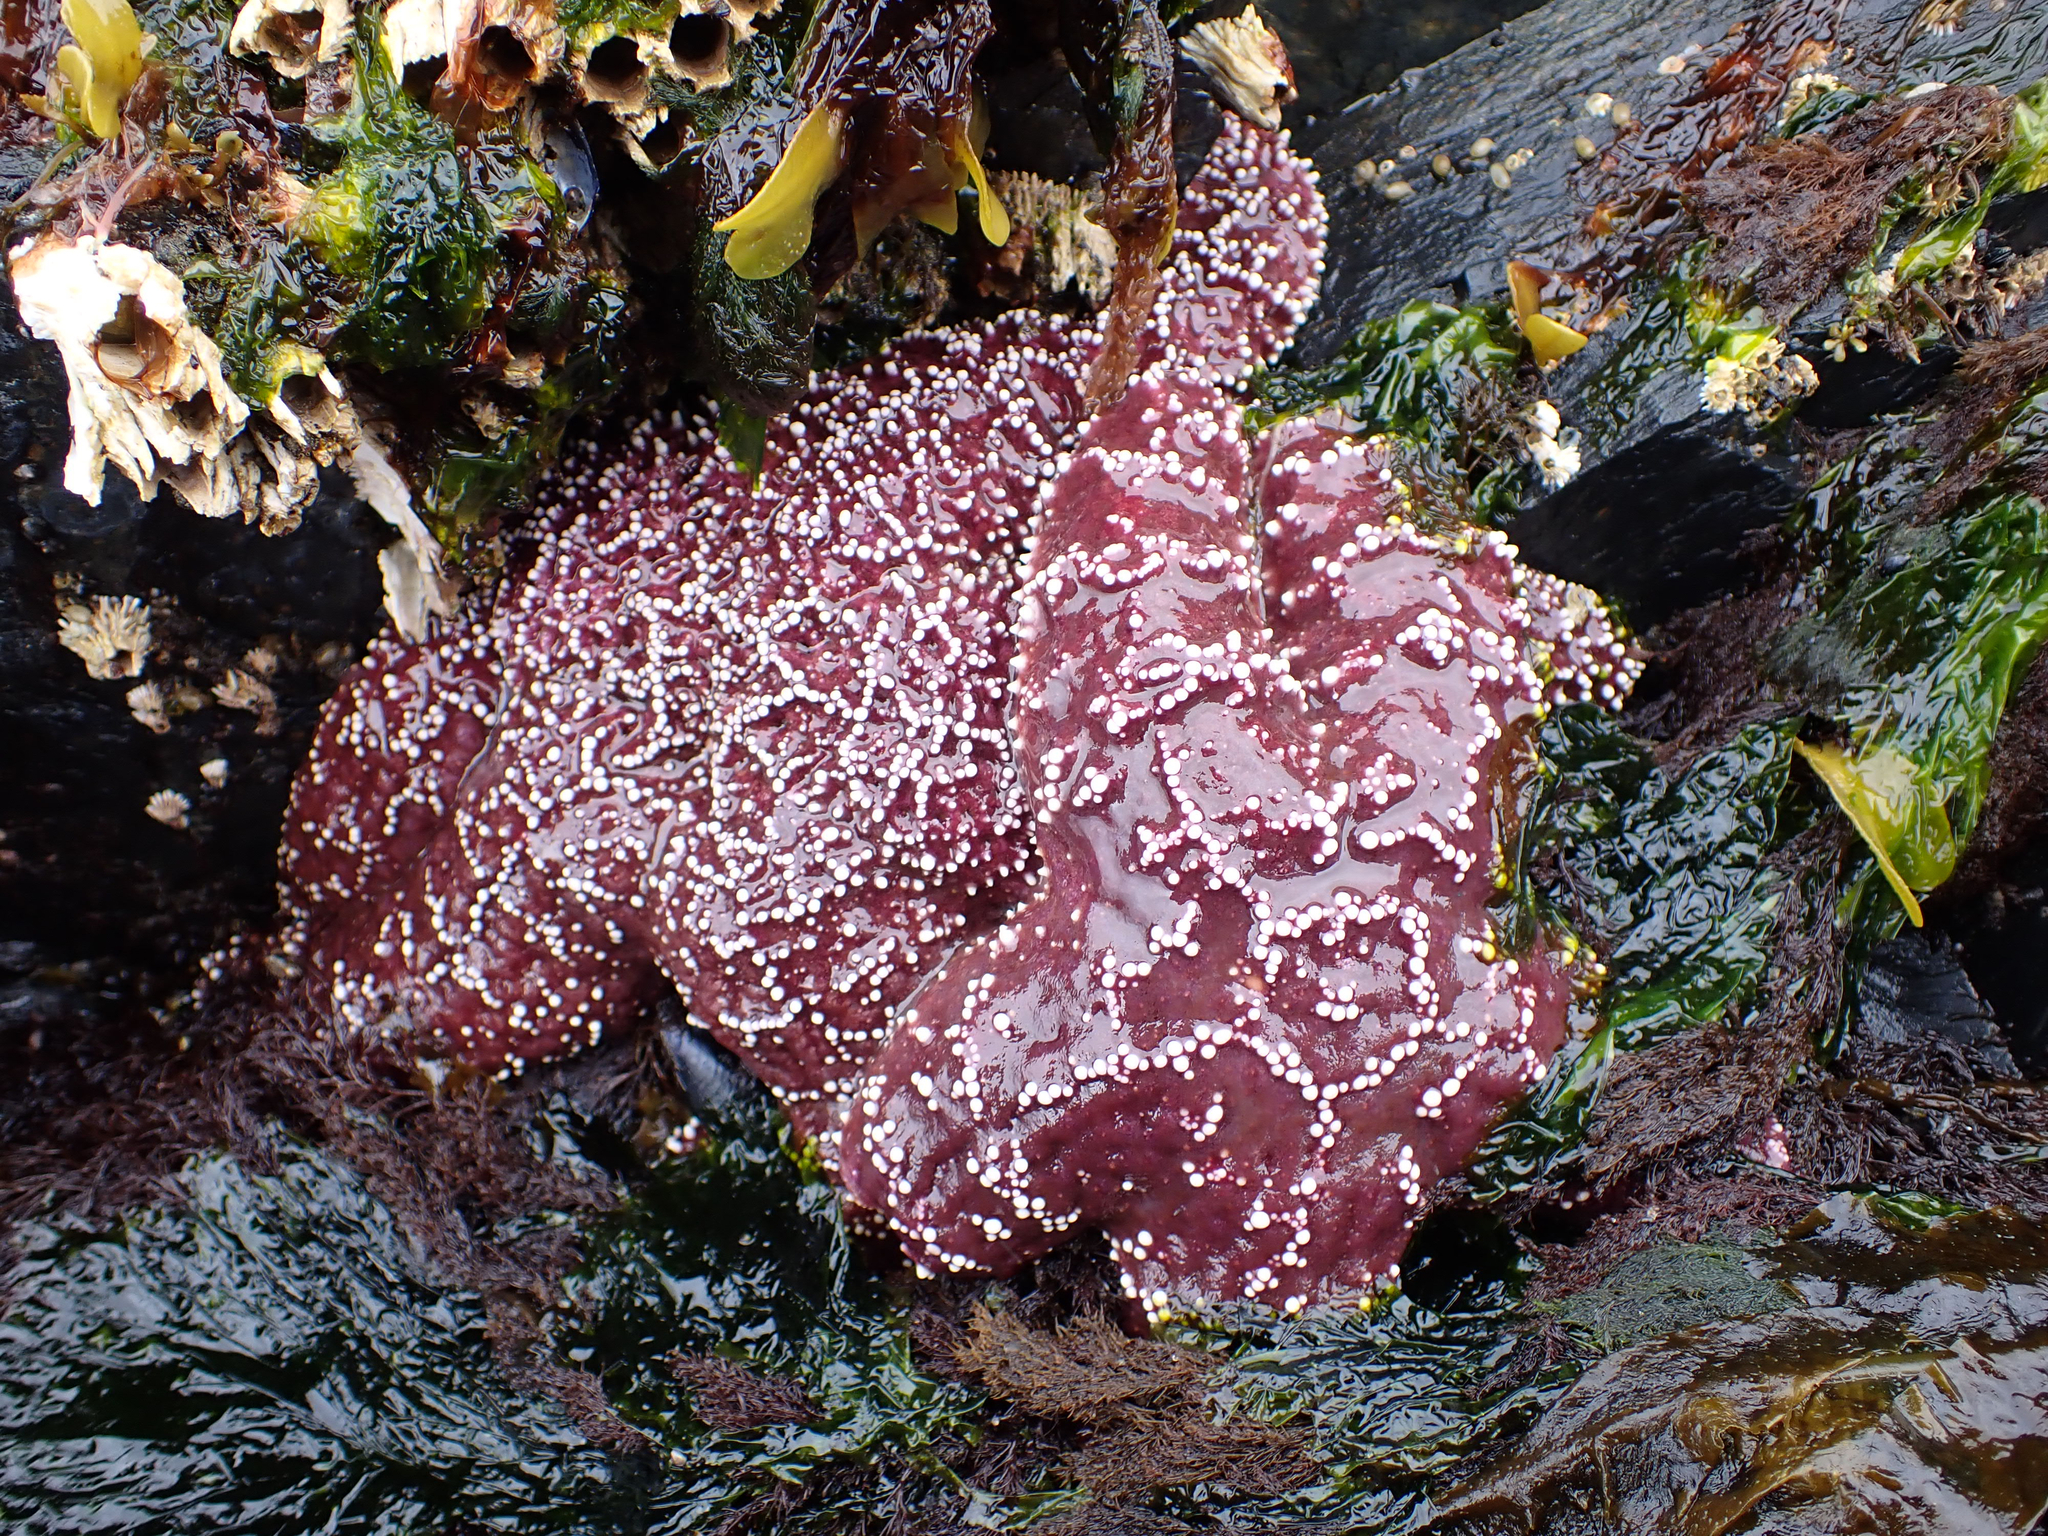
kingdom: Animalia
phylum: Echinodermata
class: Asteroidea
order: Forcipulatida
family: Asteriidae
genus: Pisaster
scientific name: Pisaster ochraceus
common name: Ochre stars
